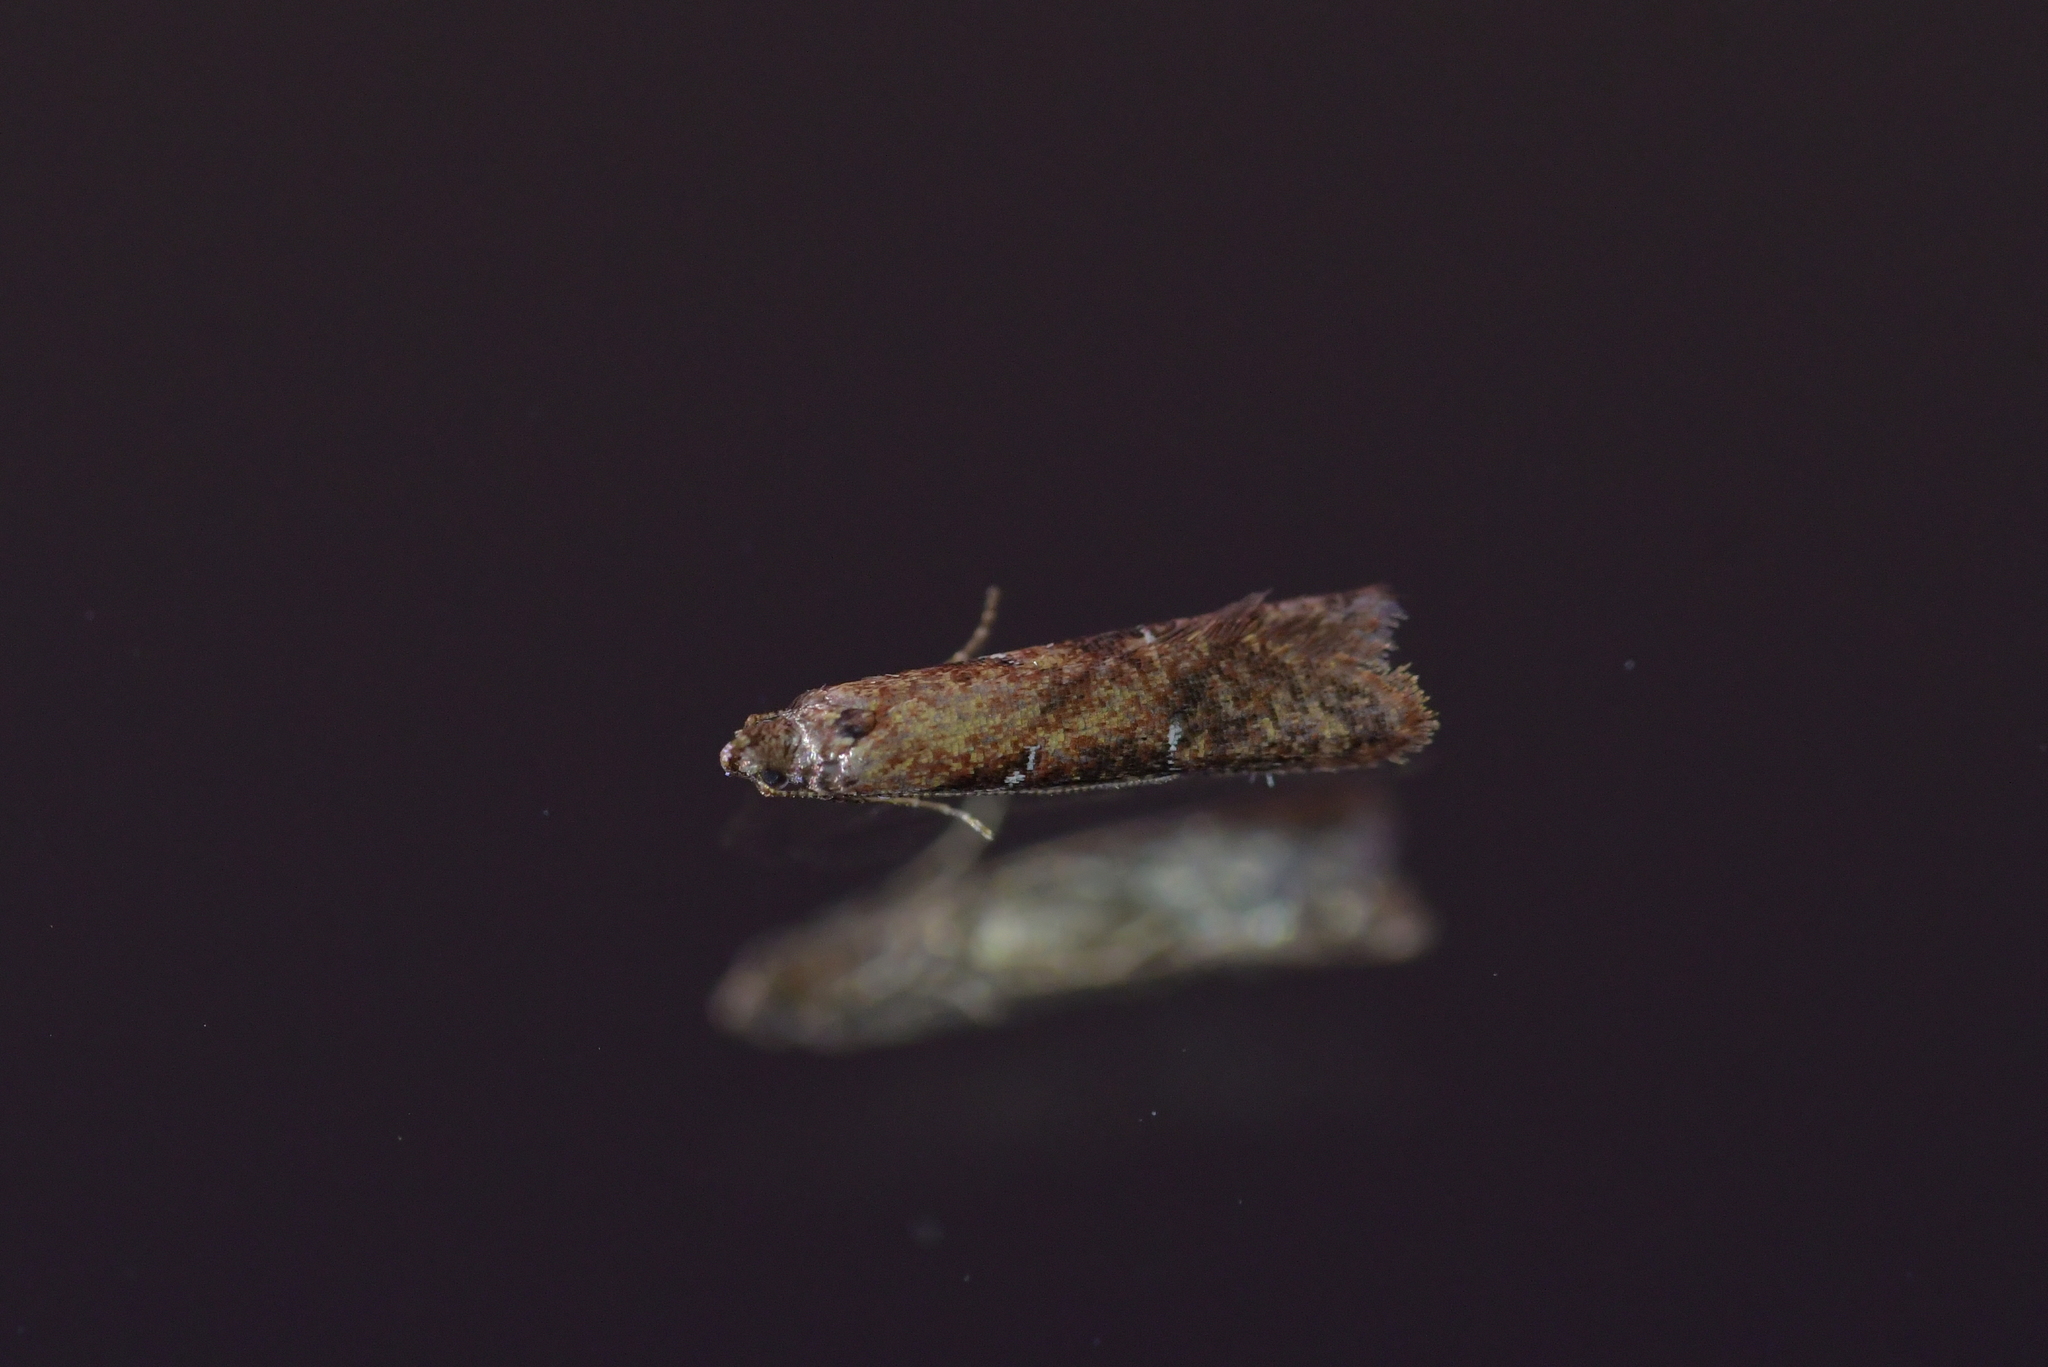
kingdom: Animalia
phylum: Arthropoda
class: Insecta
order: Lepidoptera
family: Plutellidae
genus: Cadmogenes
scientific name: Cadmogenes literata
